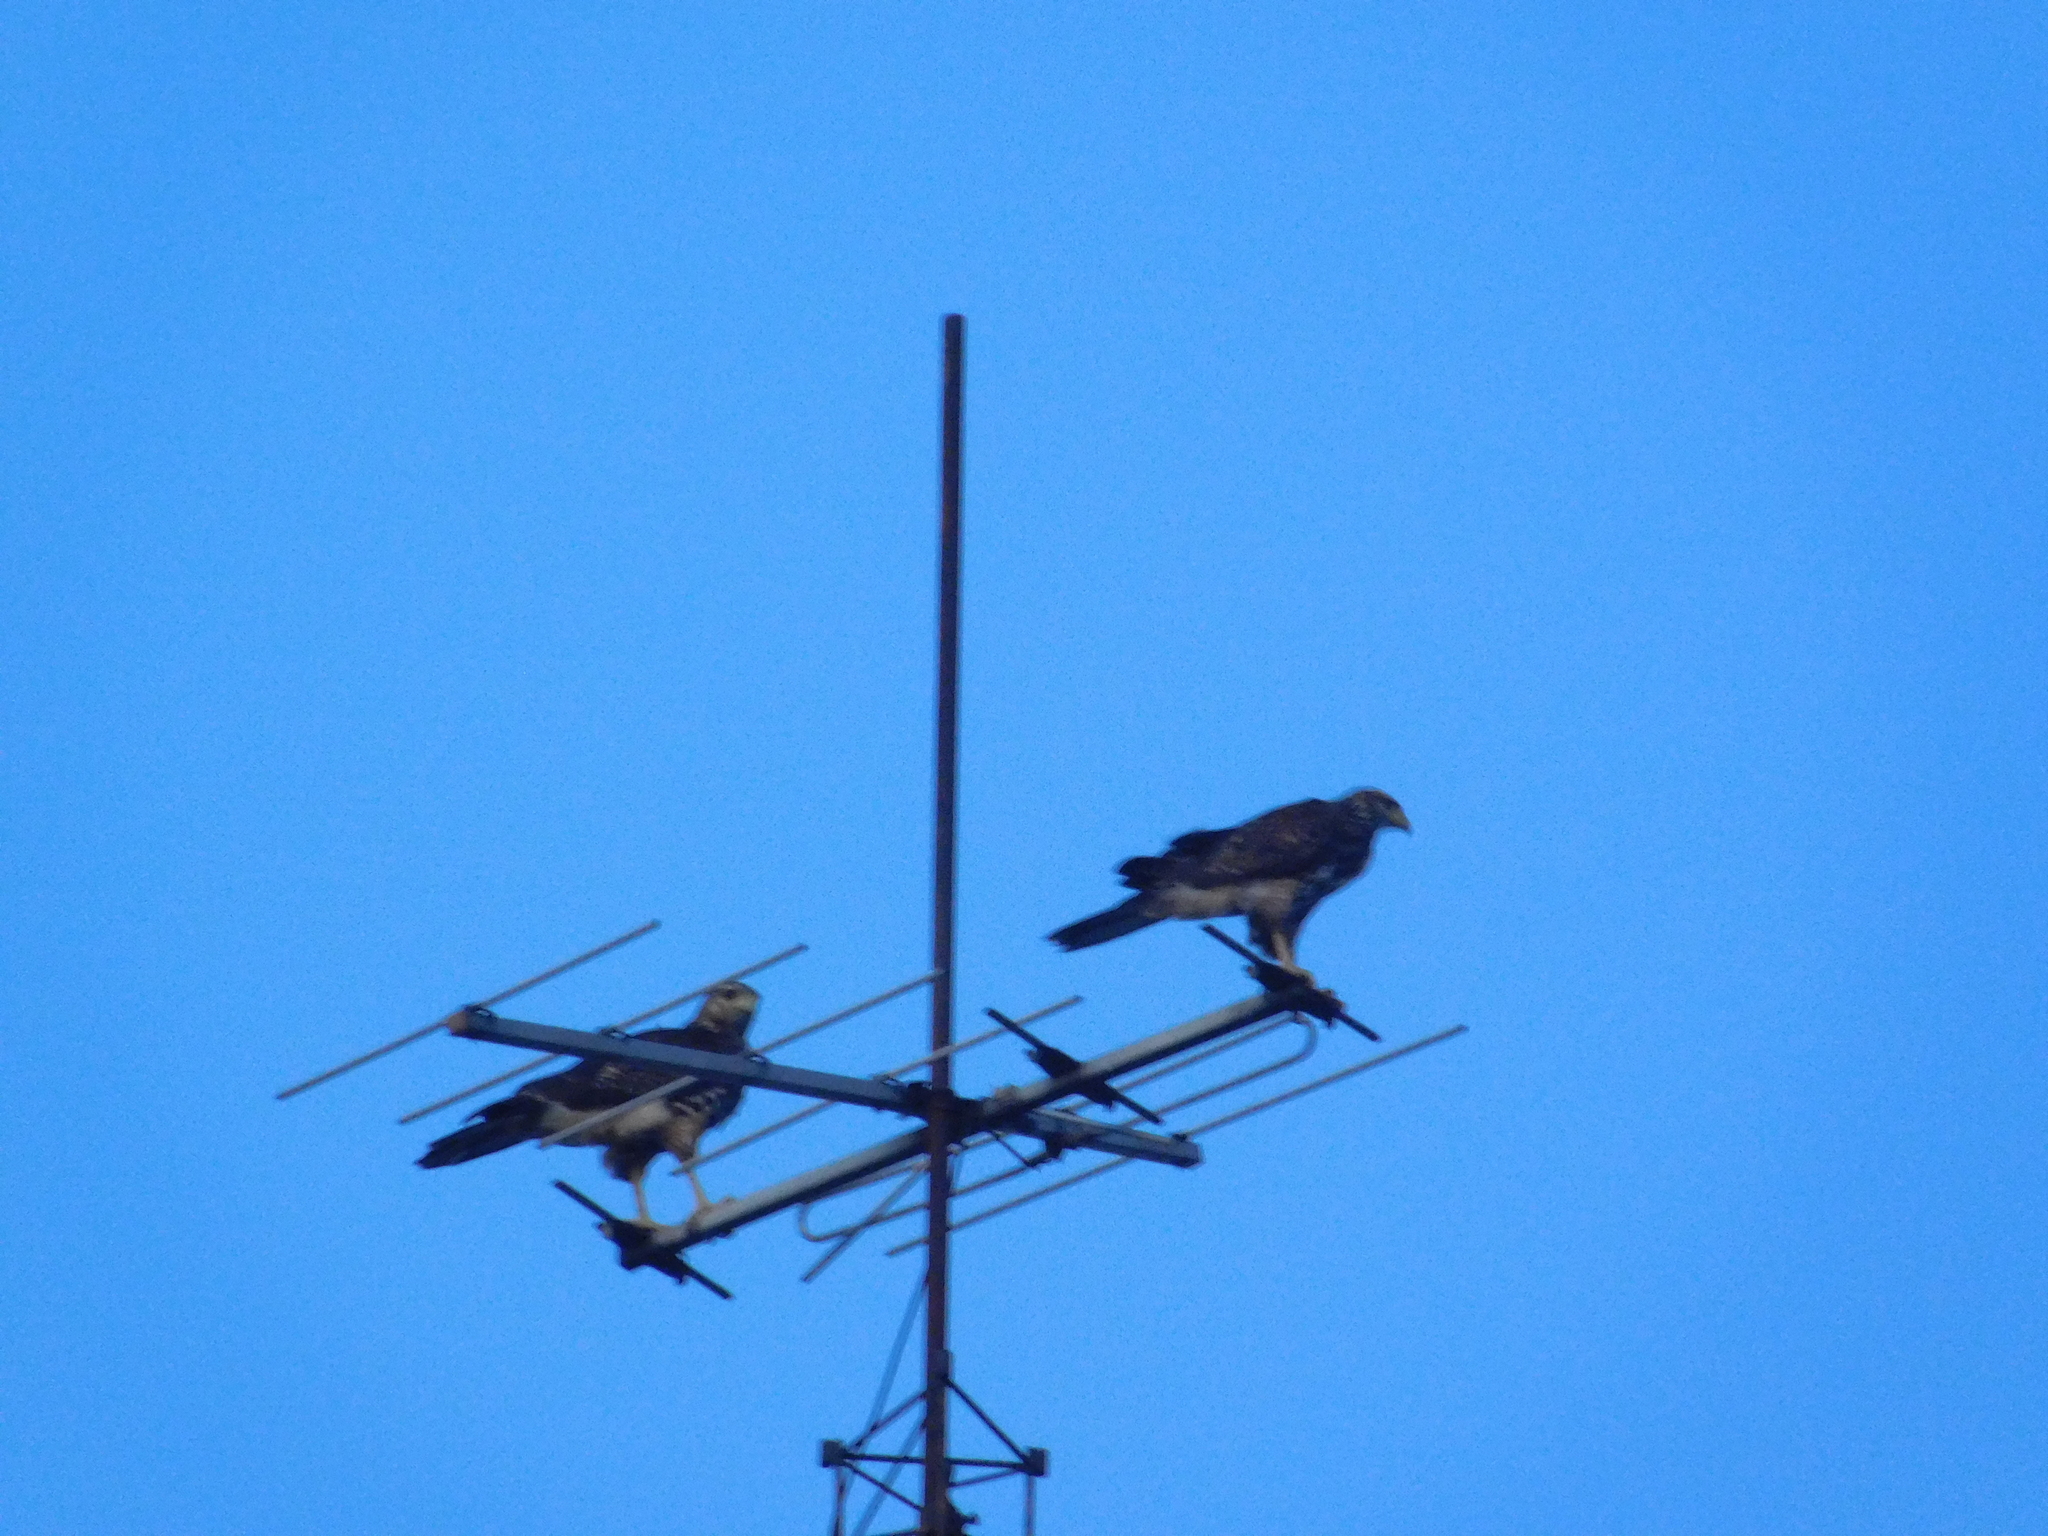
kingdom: Animalia
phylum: Chordata
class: Aves
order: Accipitriformes
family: Accipitridae
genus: Parabuteo
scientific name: Parabuteo unicinctus
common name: Harris's hawk
